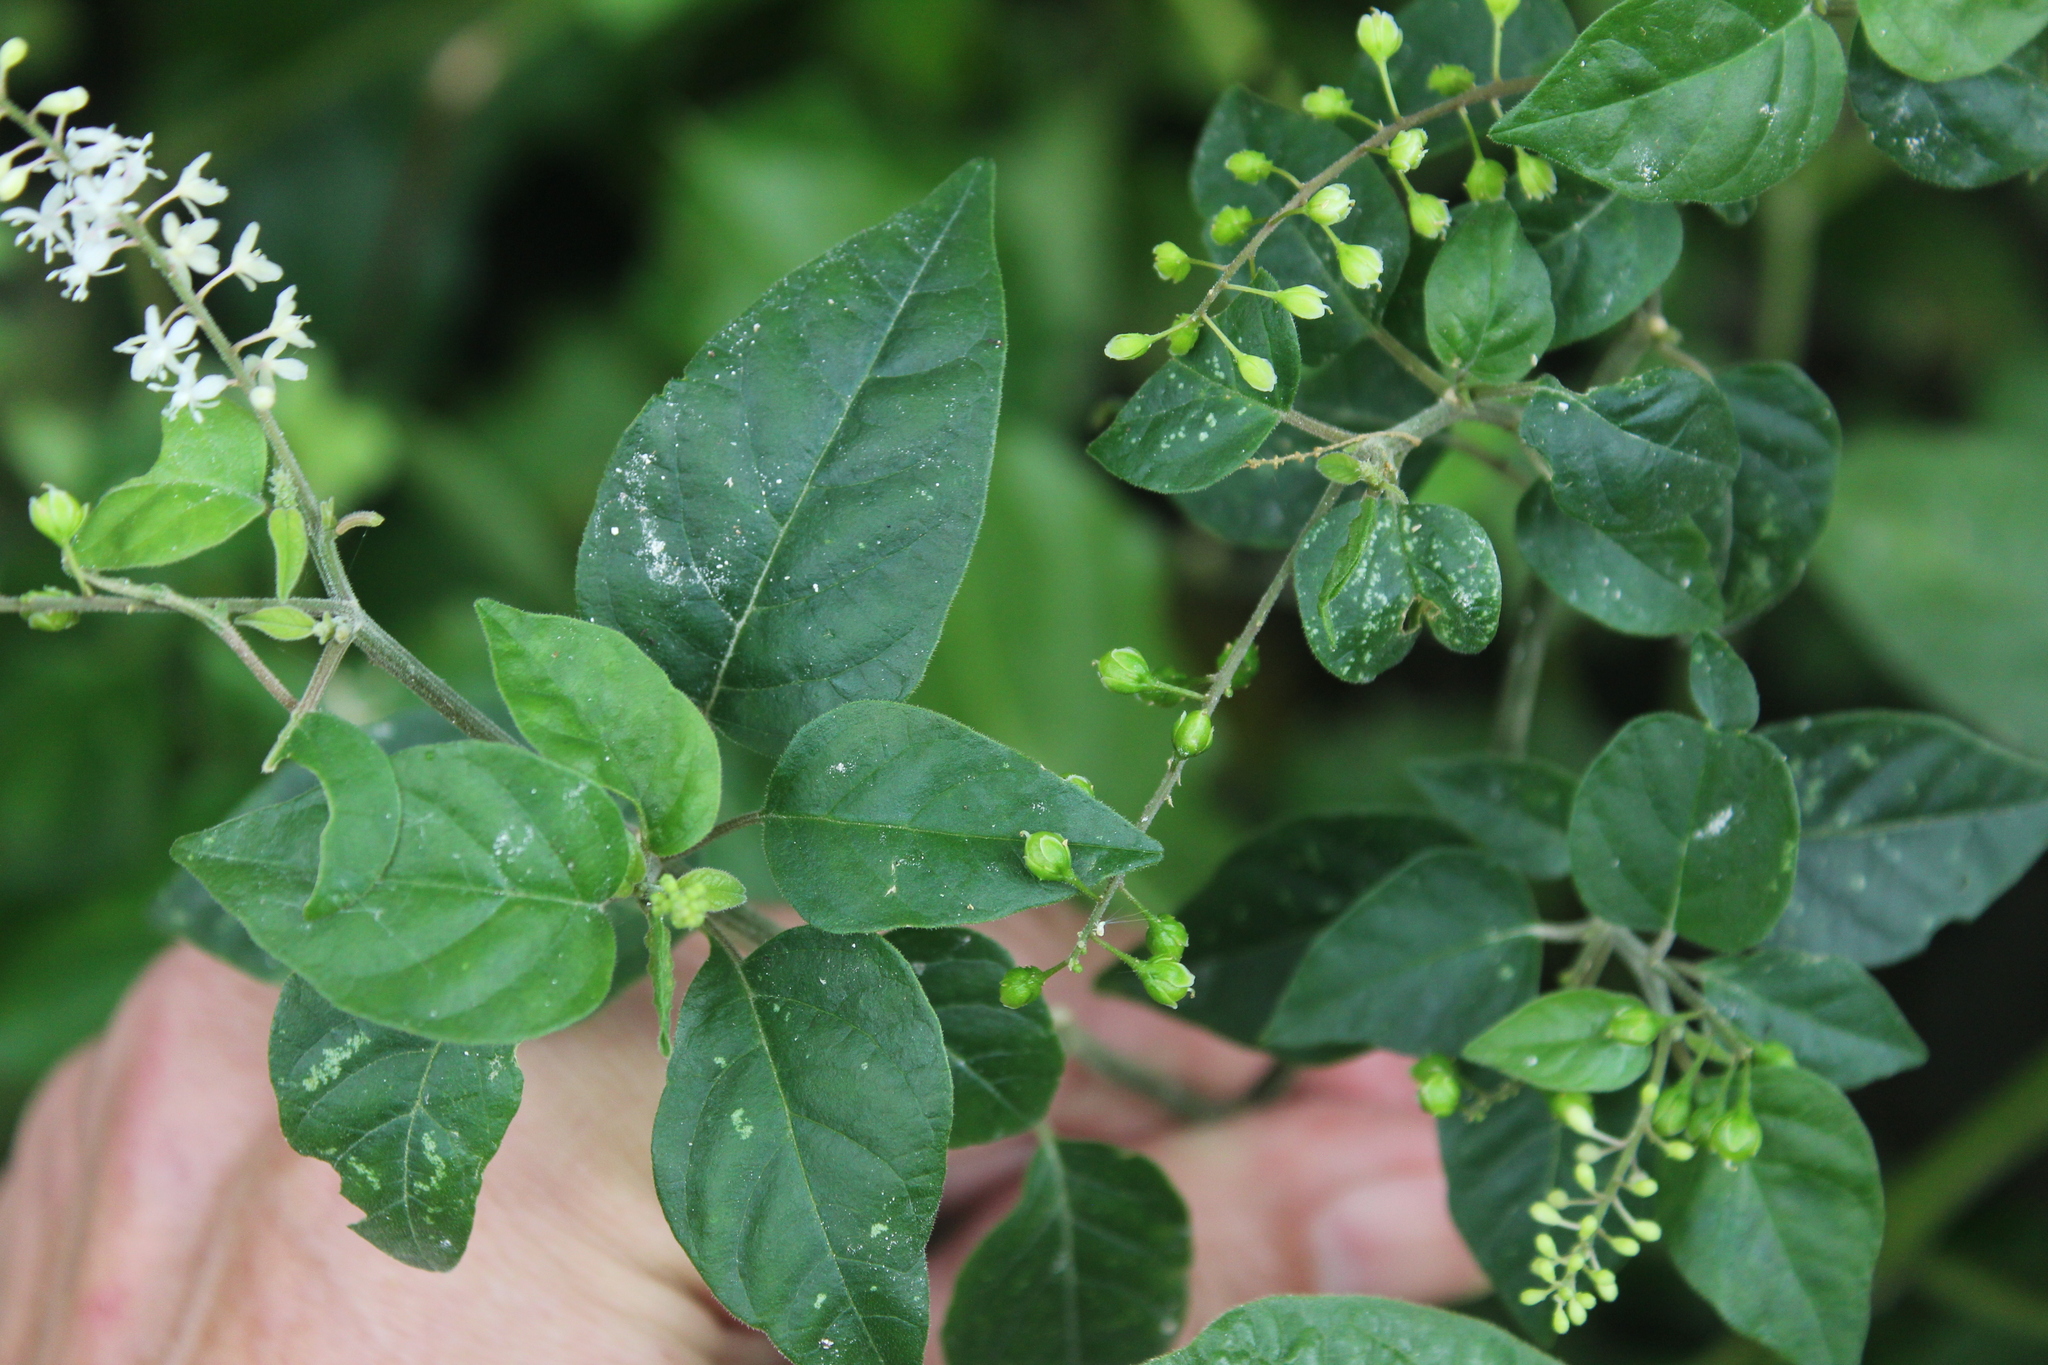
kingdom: Plantae
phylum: Tracheophyta
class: Magnoliopsida
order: Caryophyllales
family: Phytolaccaceae
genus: Rivina
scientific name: Rivina humilis
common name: Rougeplant
